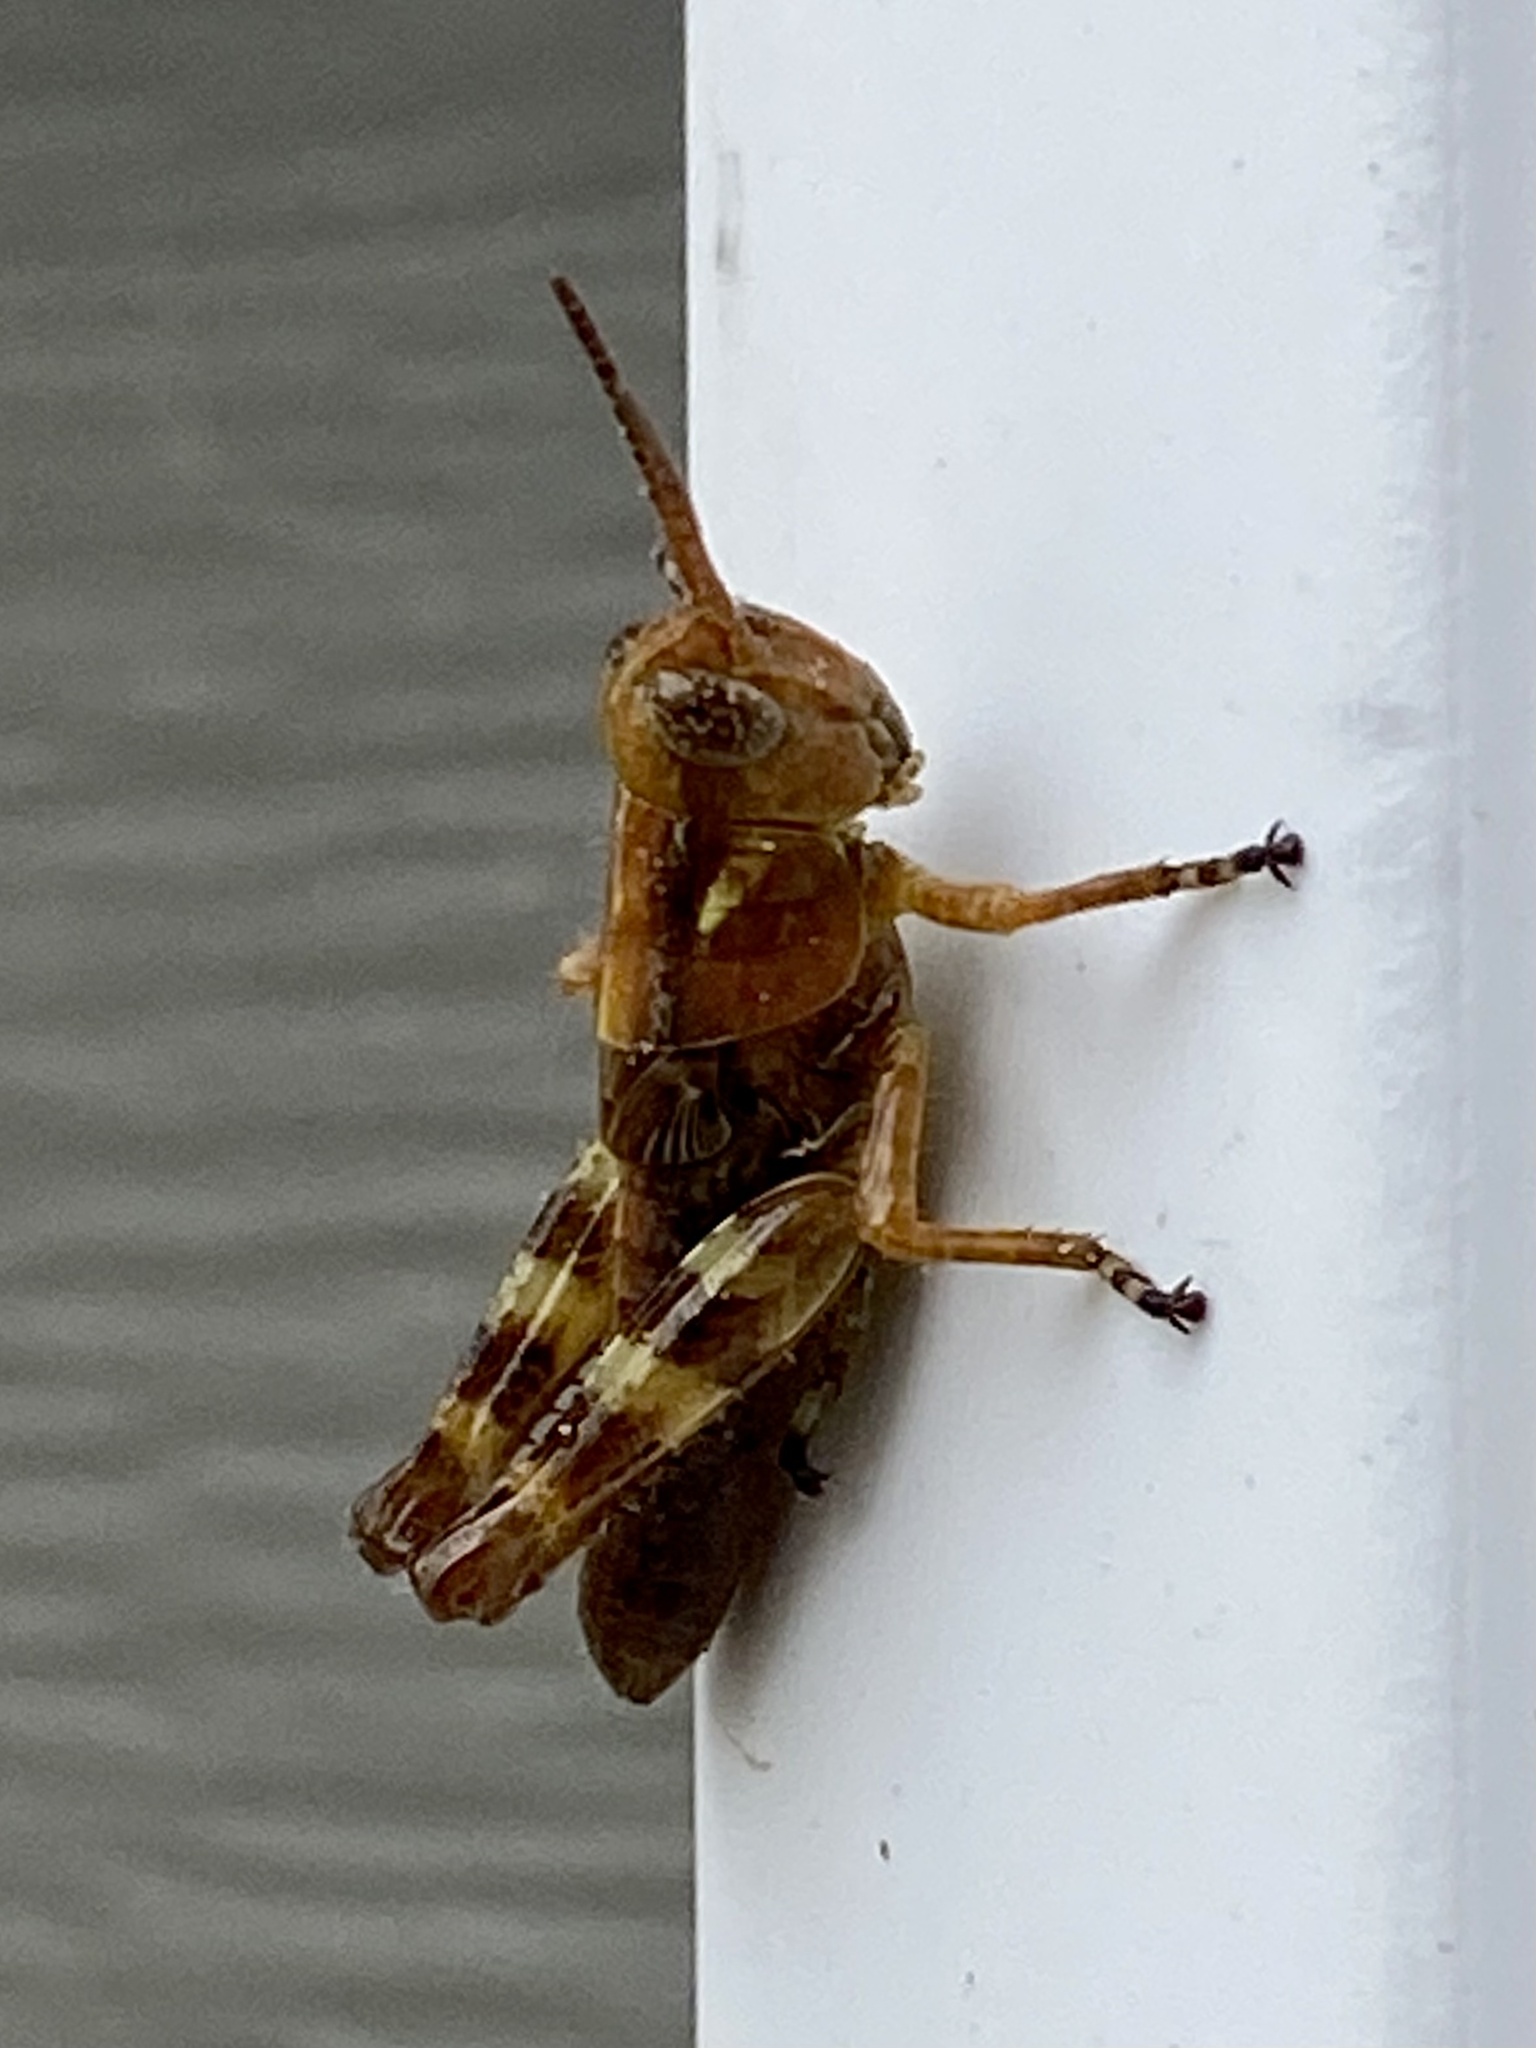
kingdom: Animalia
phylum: Arthropoda
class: Insecta
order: Orthoptera
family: Acrididae
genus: Melanoplus
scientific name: Melanoplus punctulatus
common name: Pine-tree spur-throat grasshopper
